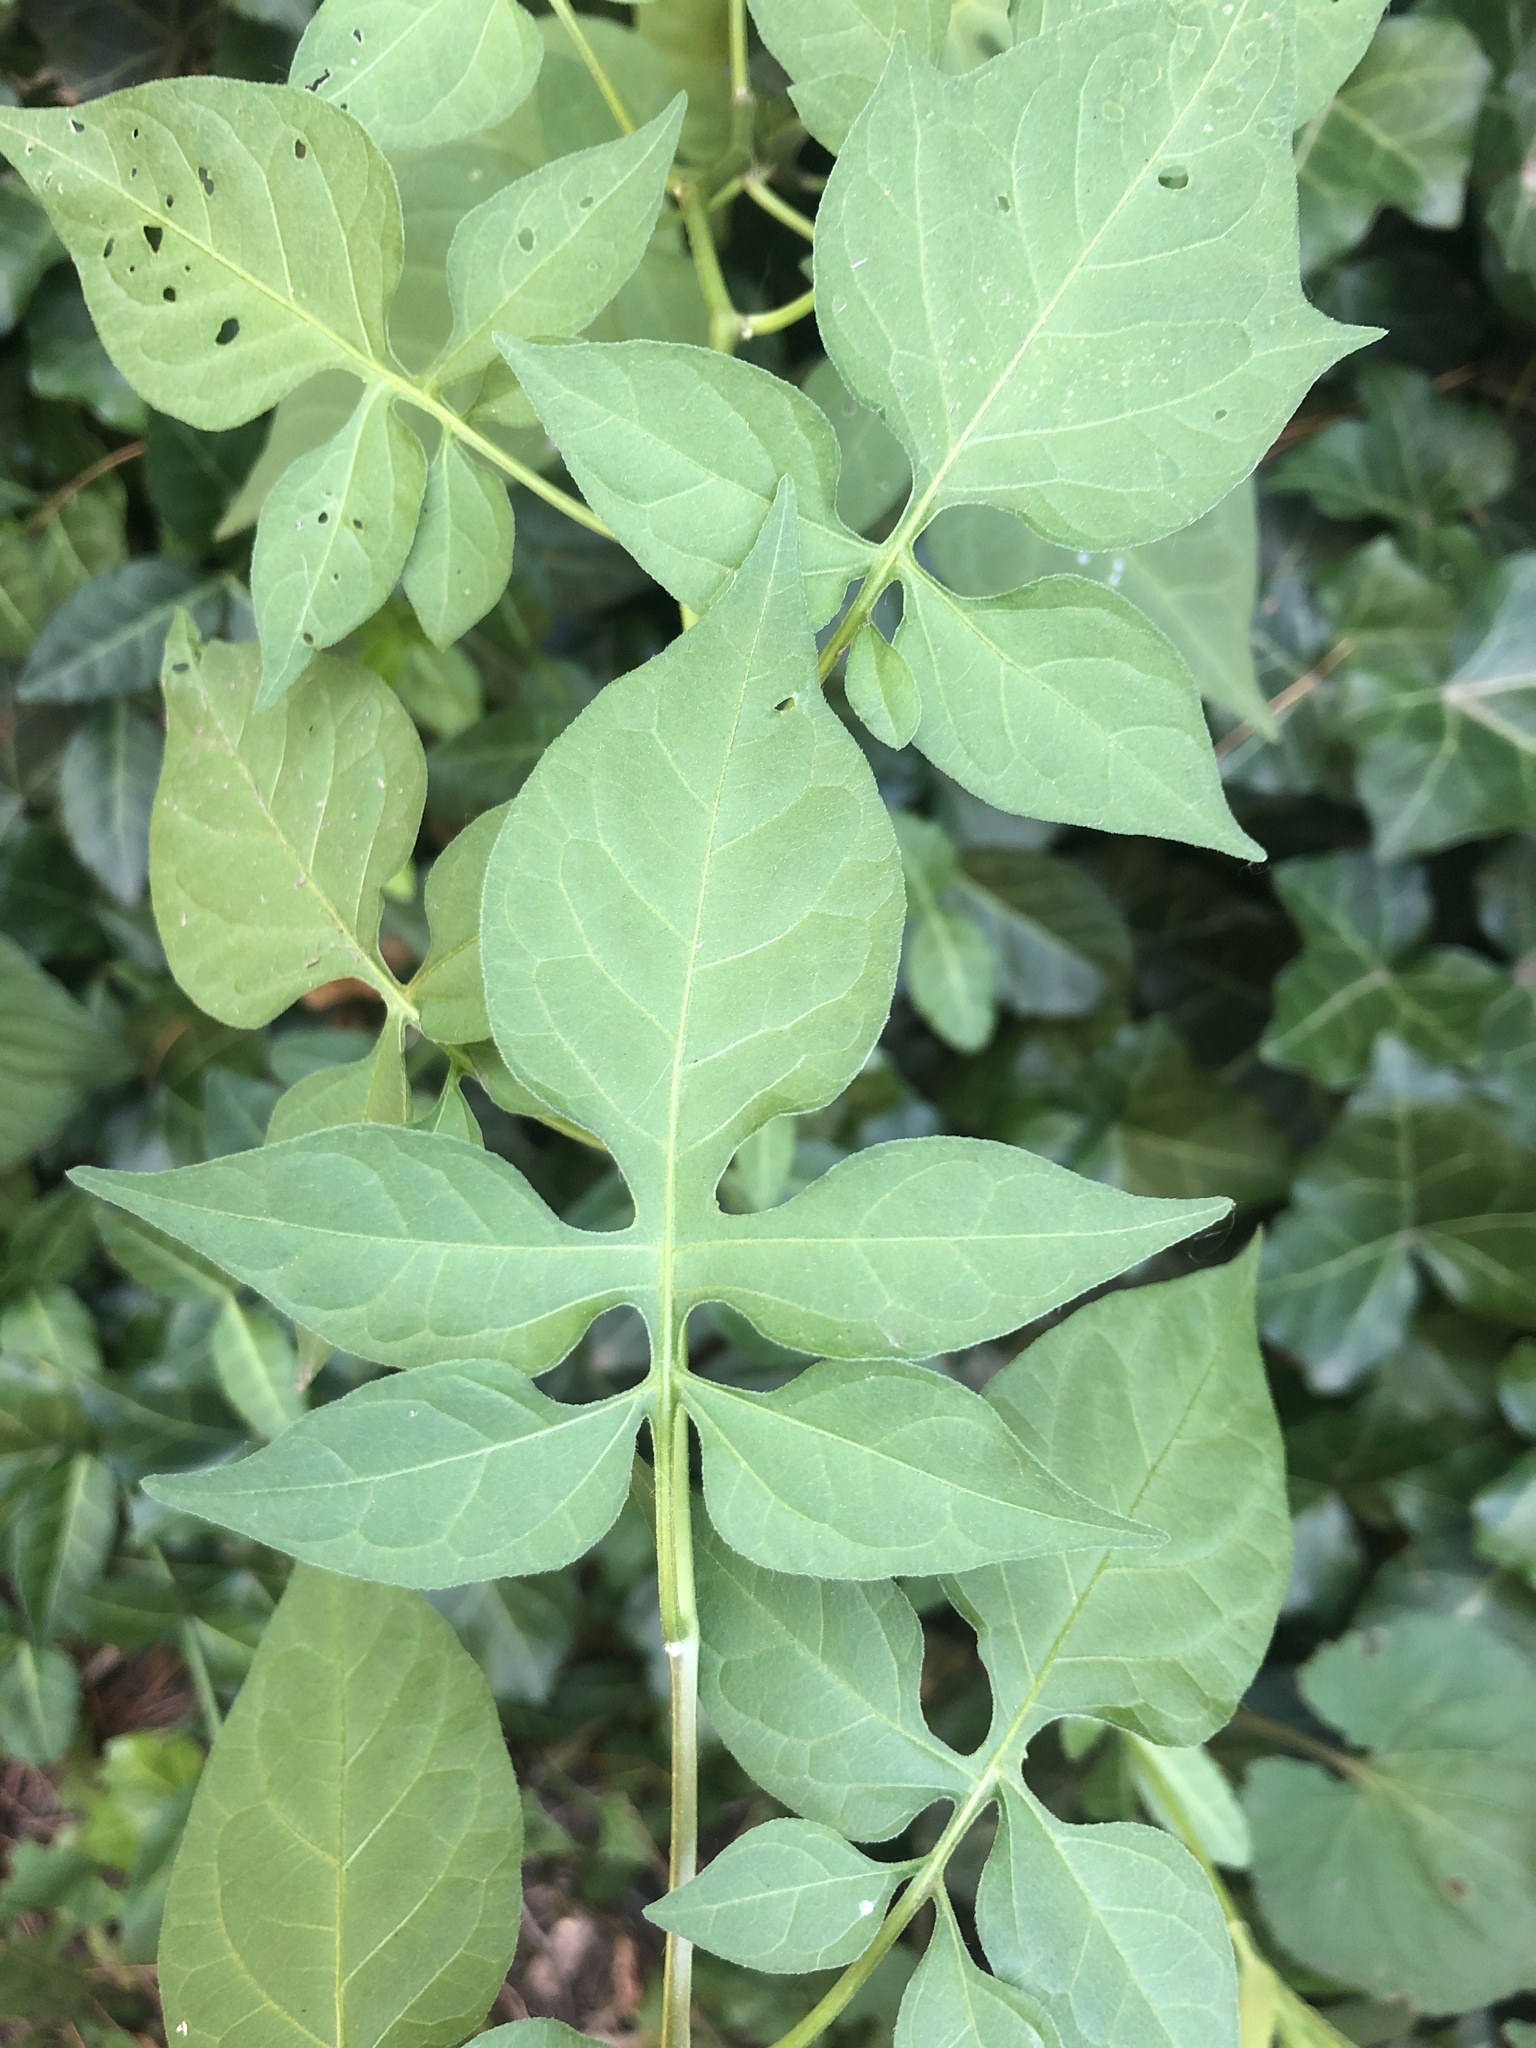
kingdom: Plantae
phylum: Tracheophyta
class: Magnoliopsida
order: Solanales
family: Solanaceae
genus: Solanum
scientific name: Solanum dulcamara
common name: Climbing nightshade
